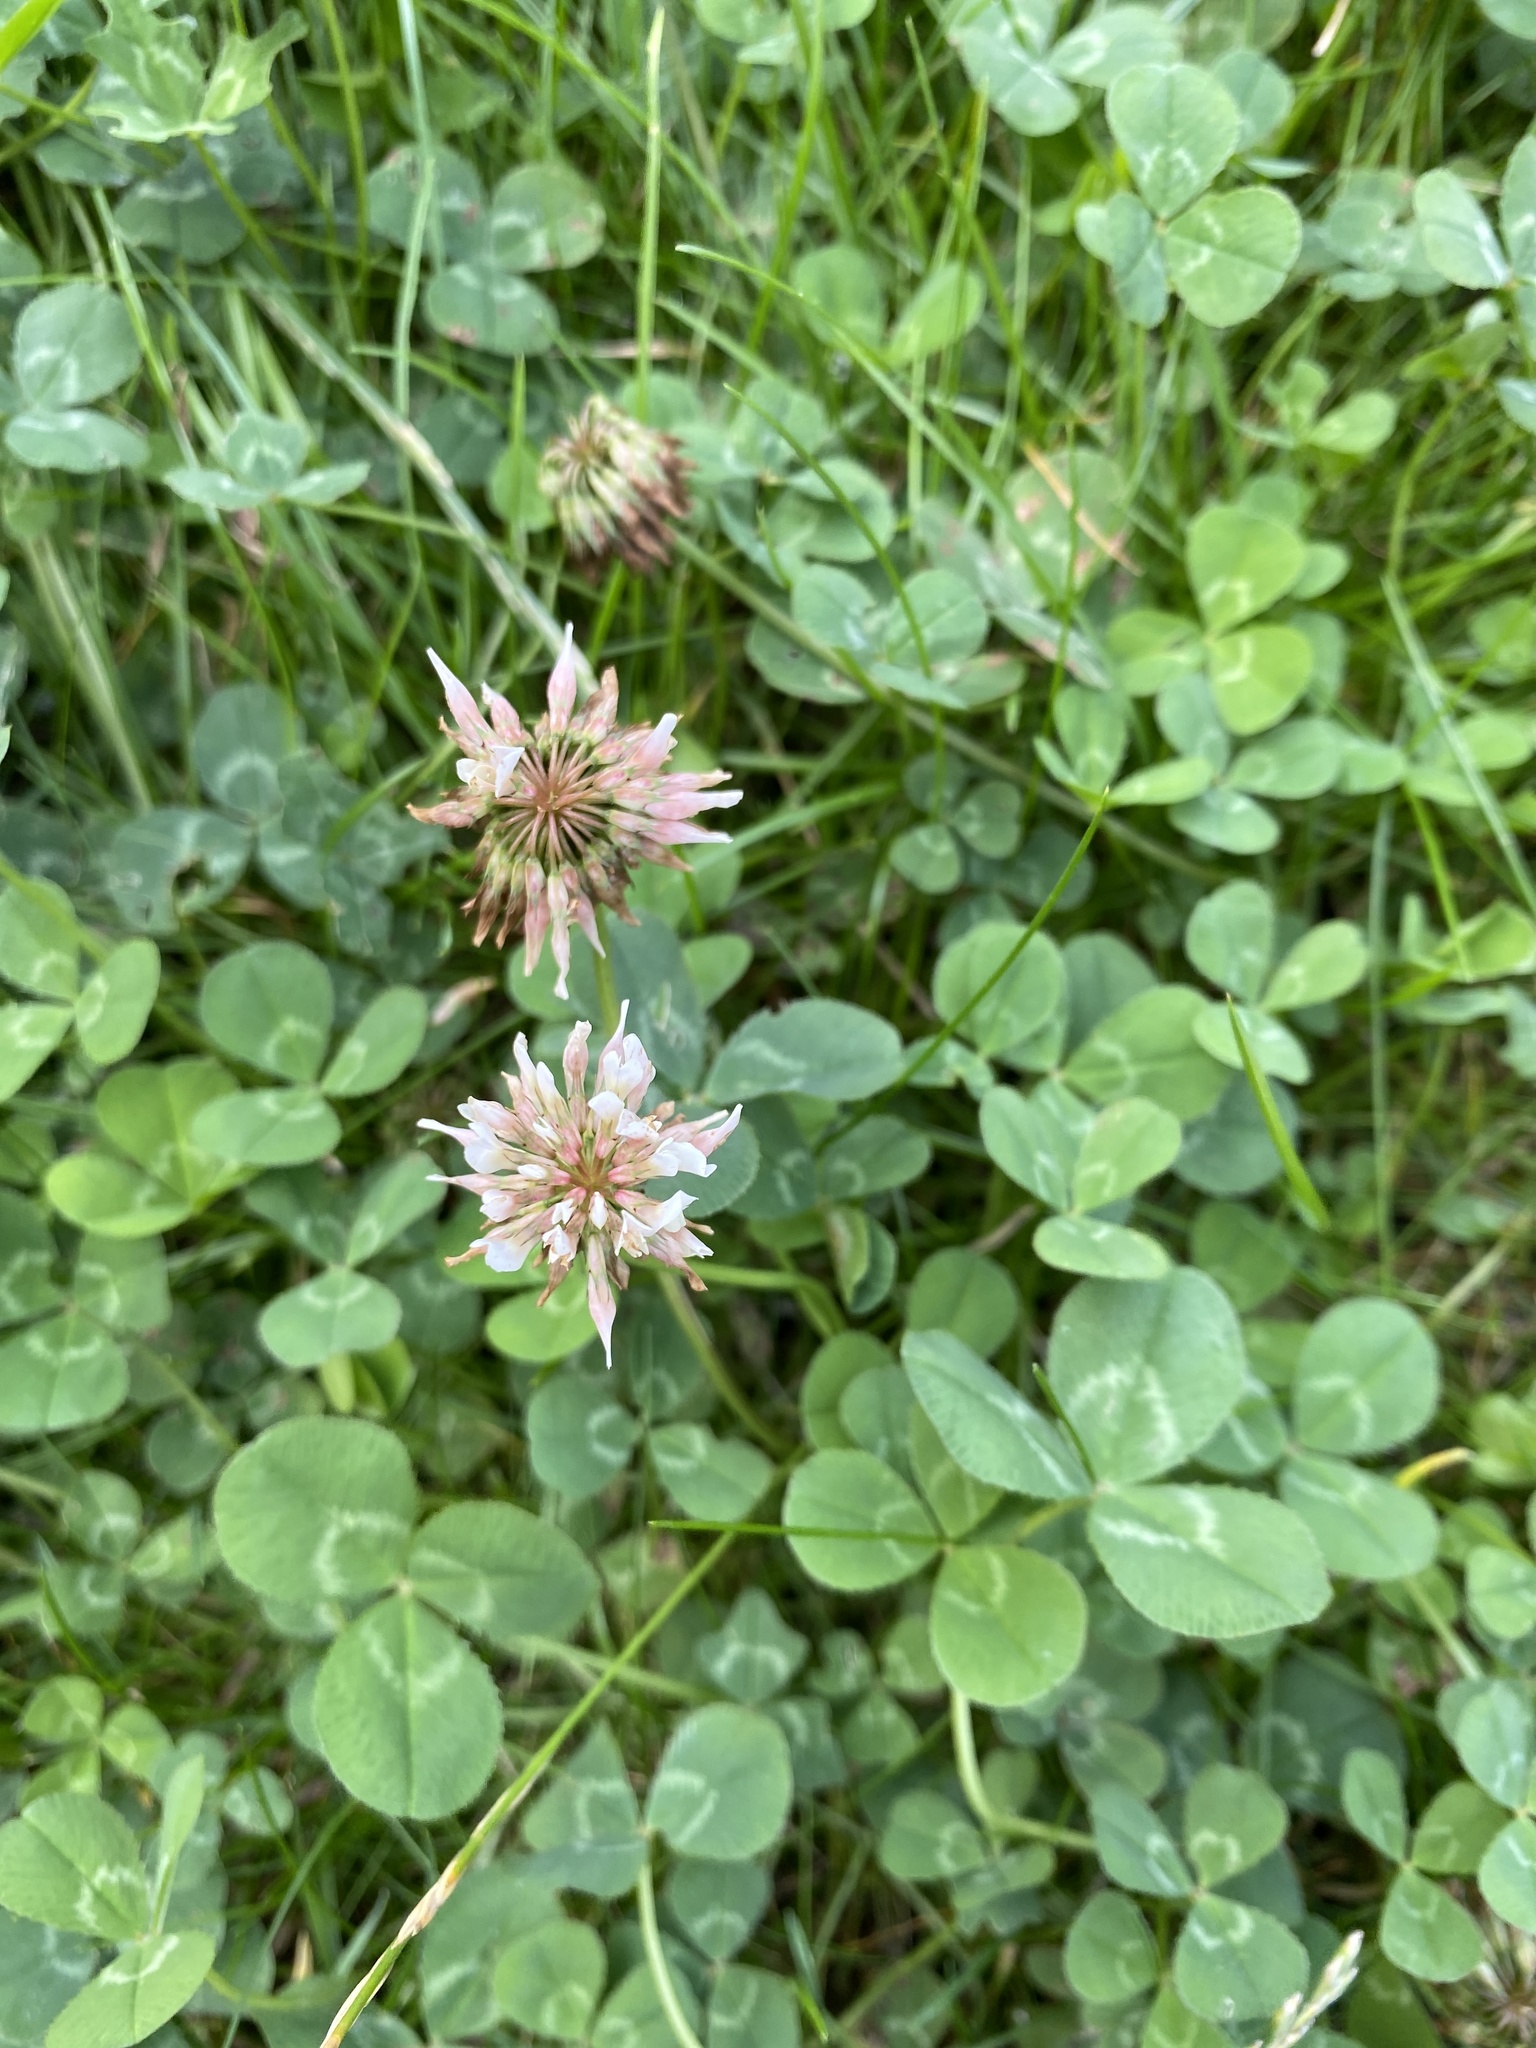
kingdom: Plantae
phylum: Tracheophyta
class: Magnoliopsida
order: Fabales
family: Fabaceae
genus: Trifolium
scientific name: Trifolium repens
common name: White clover
